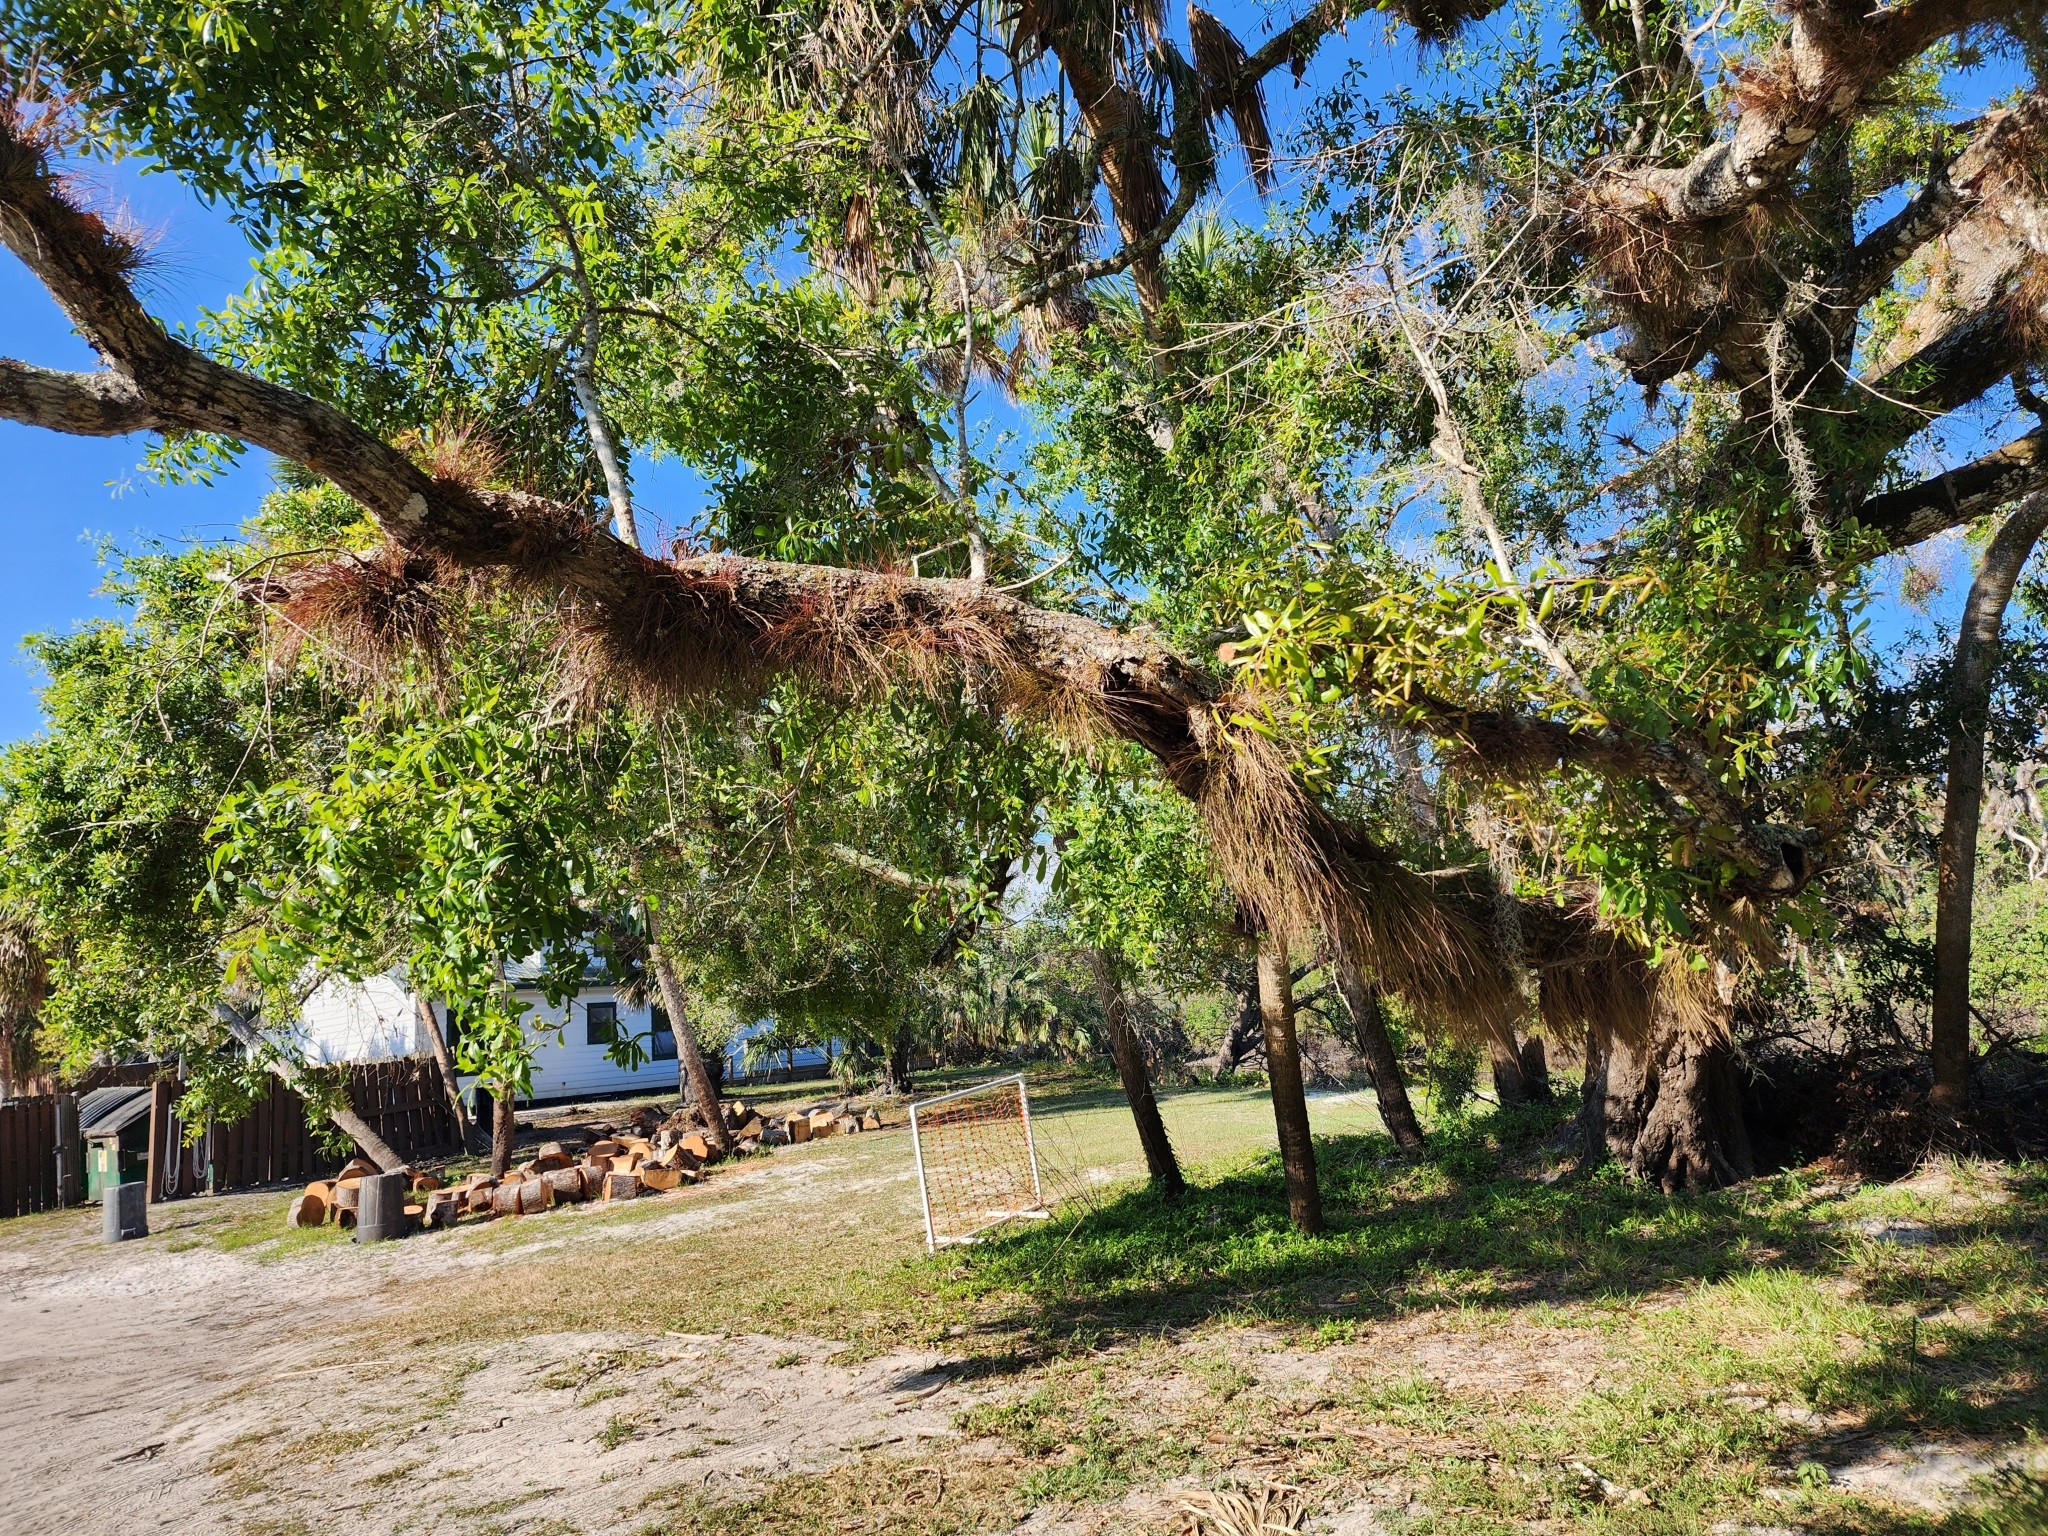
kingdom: Plantae
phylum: Tracheophyta
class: Liliopsida
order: Poales
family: Bromeliaceae
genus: Tillandsia
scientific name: Tillandsia setacea
